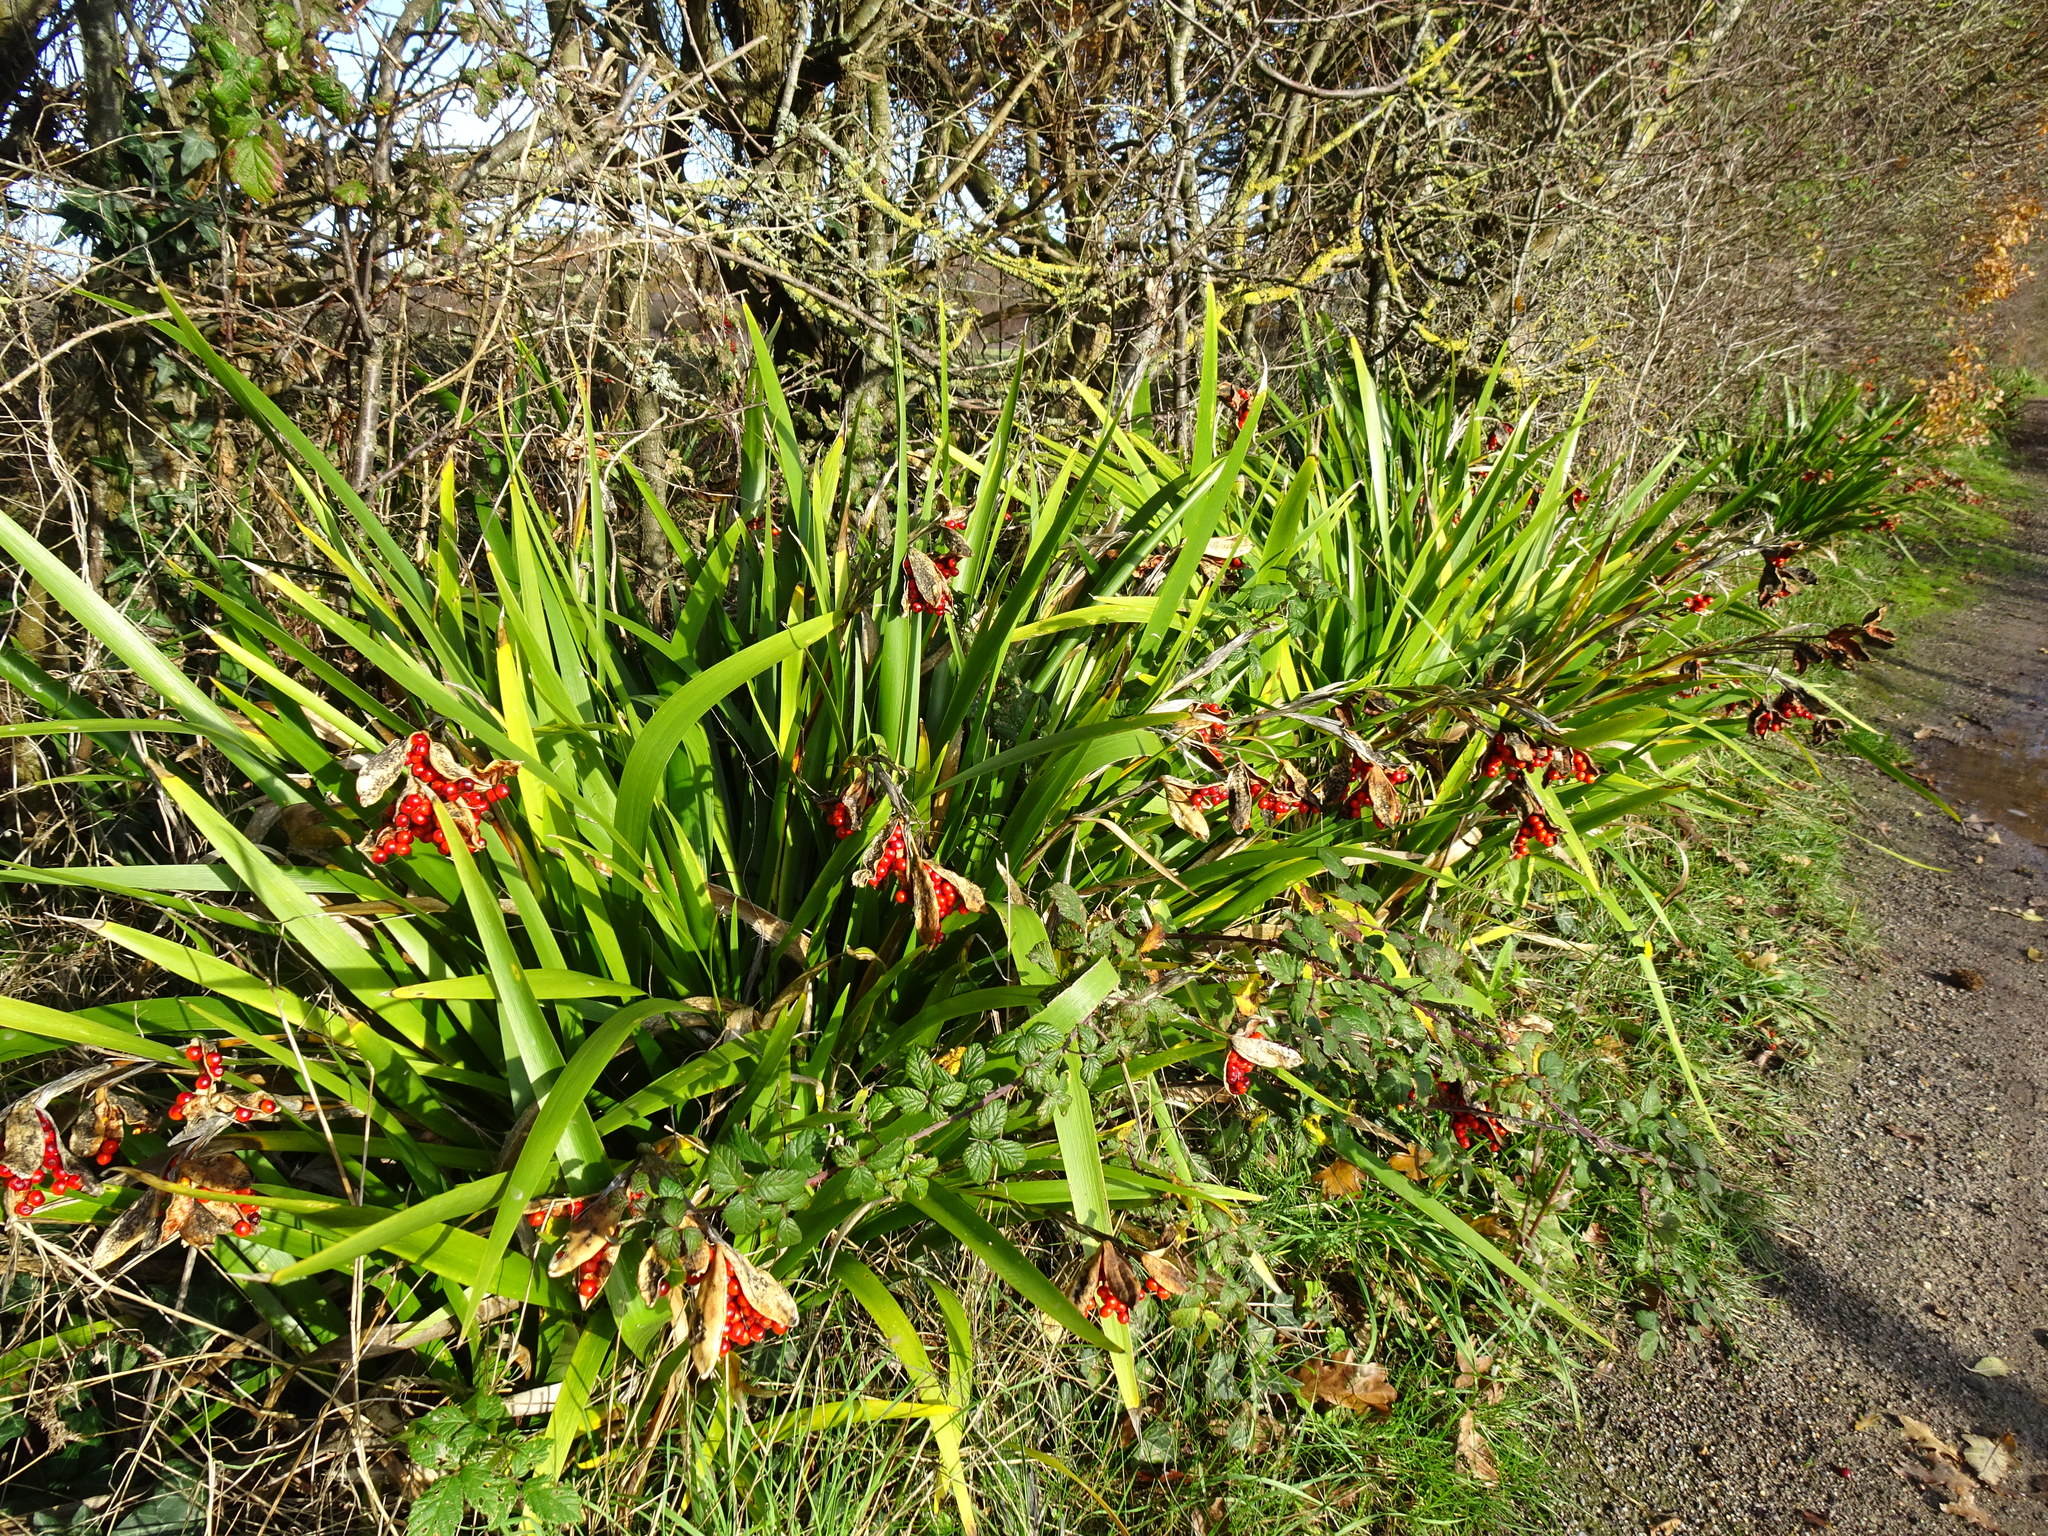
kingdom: Plantae
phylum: Tracheophyta
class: Liliopsida
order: Asparagales
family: Iridaceae
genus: Iris
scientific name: Iris foetidissima
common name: Stinking iris
